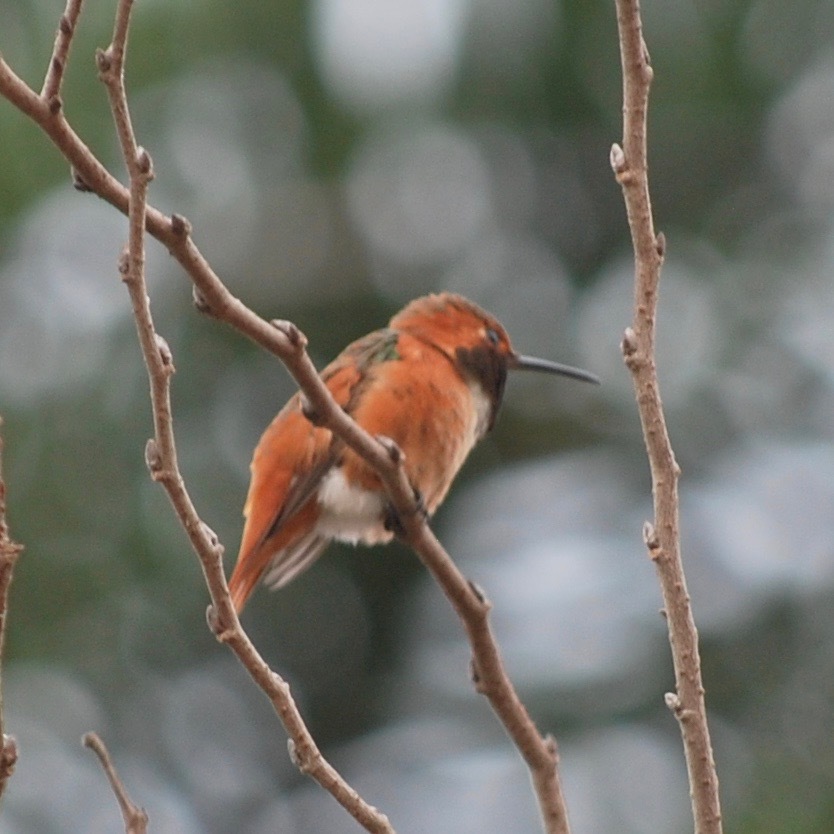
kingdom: Animalia
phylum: Chordata
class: Aves
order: Apodiformes
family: Trochilidae
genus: Selasphorus
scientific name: Selasphorus sasin
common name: Allen's hummingbird
